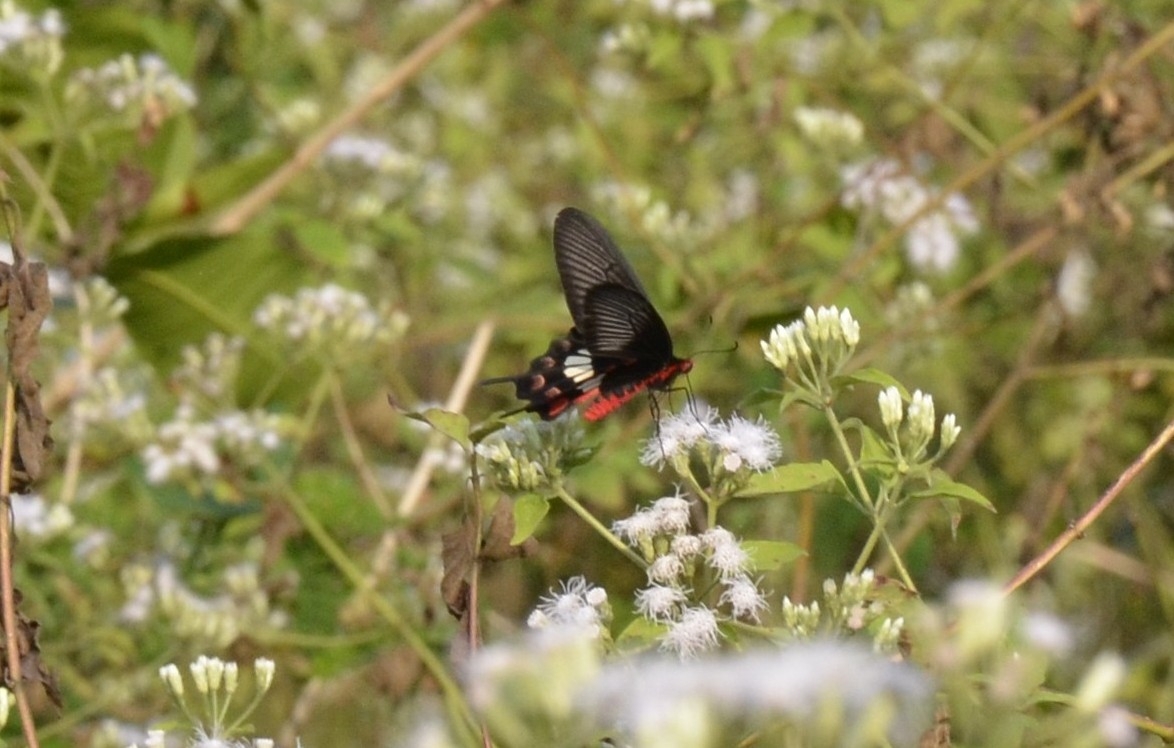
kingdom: Animalia
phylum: Arthropoda
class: Insecta
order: Lepidoptera
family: Papilionidae
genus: Pachliopta
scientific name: Pachliopta aristolochiae
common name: Common rose
